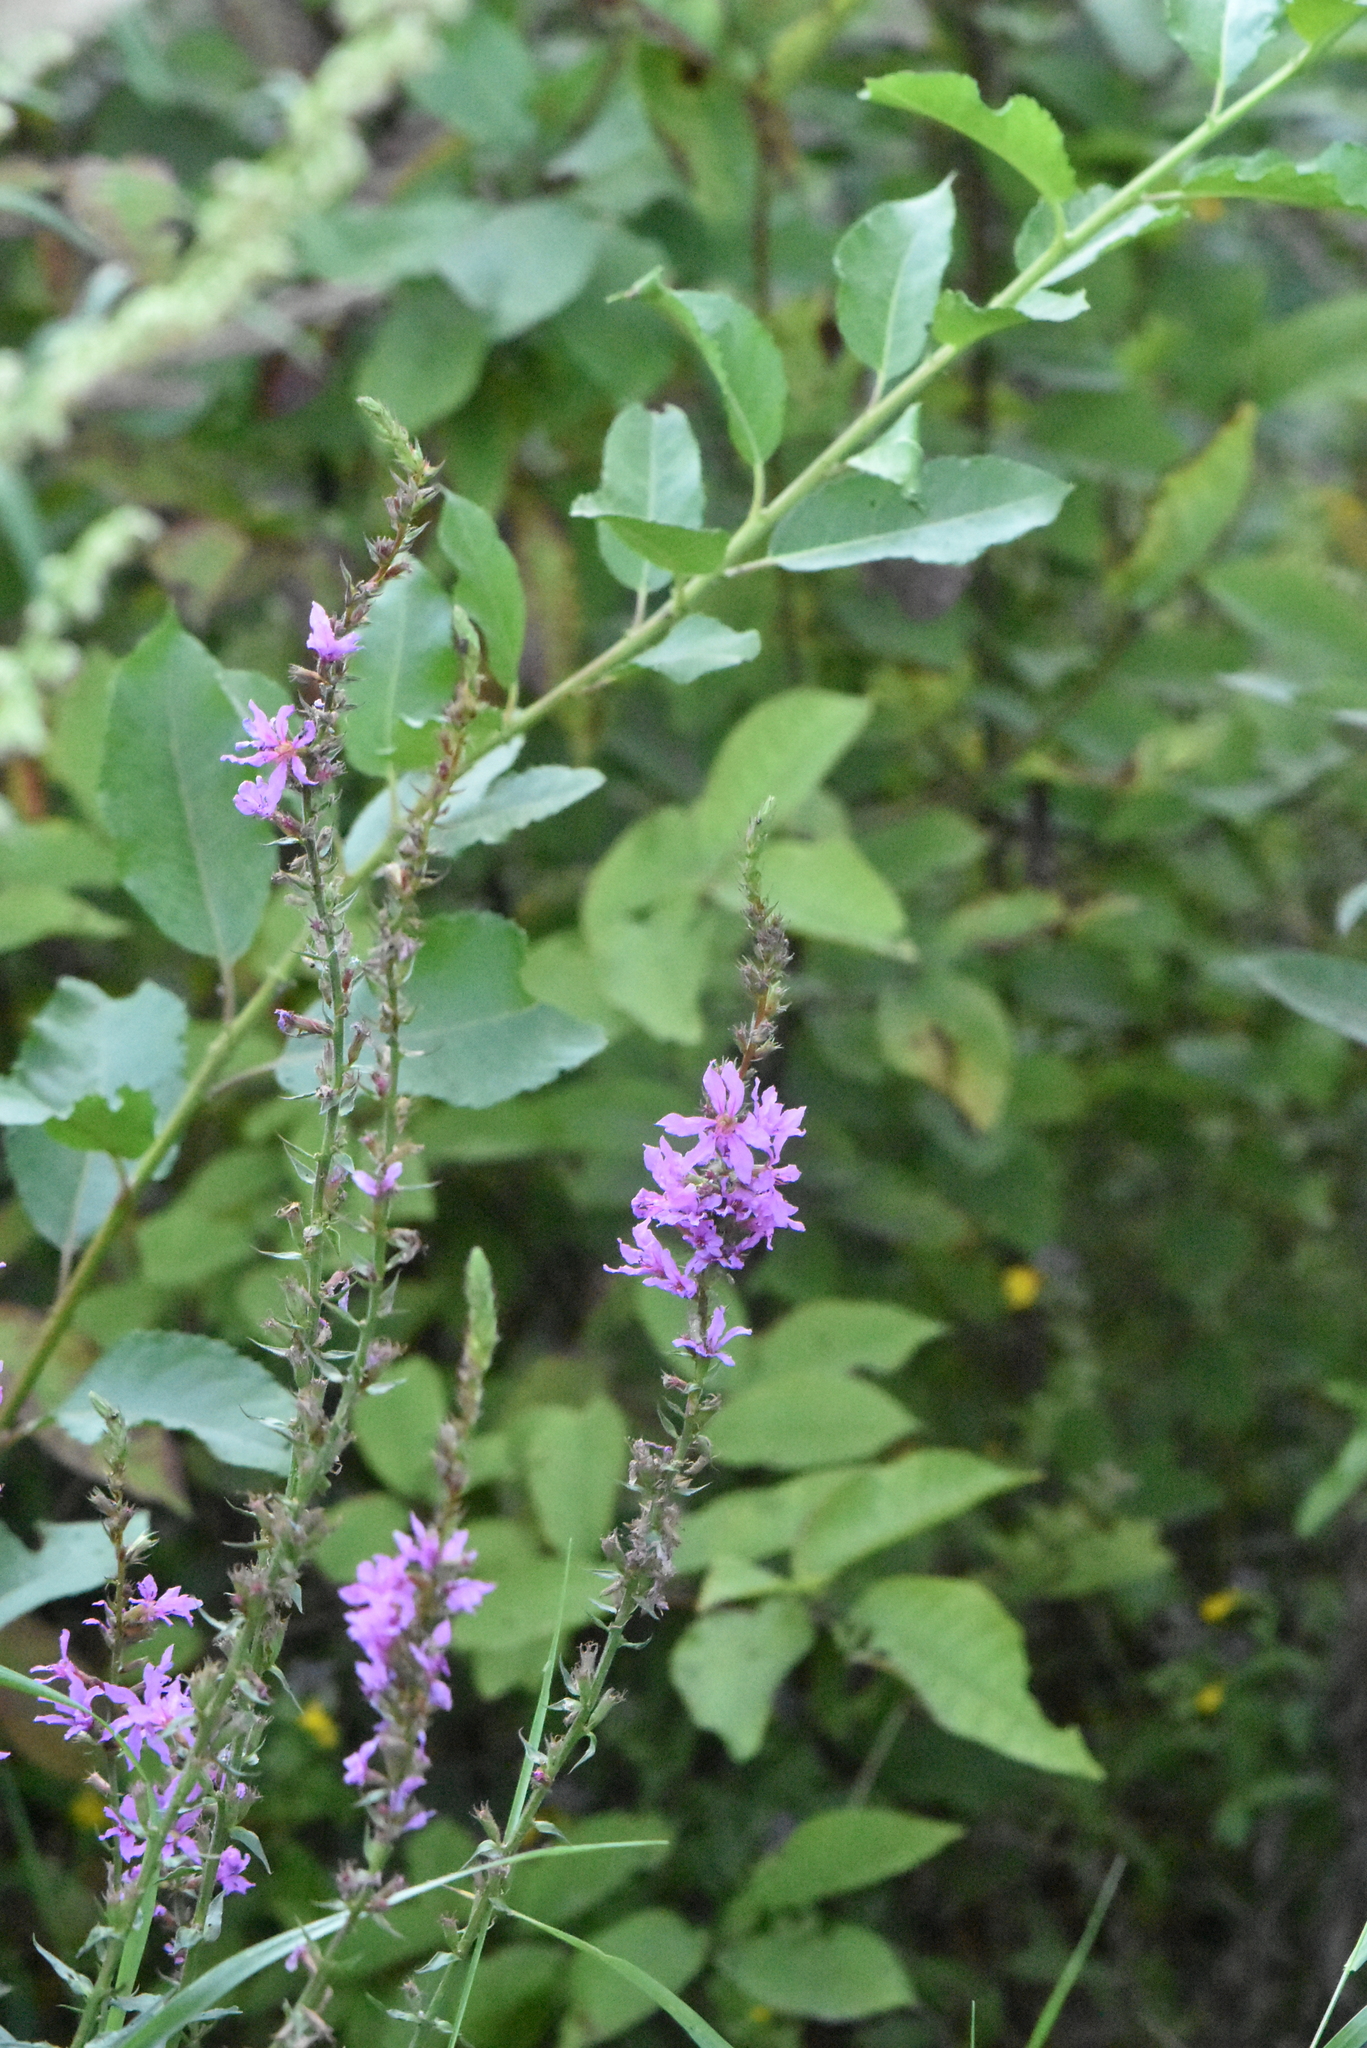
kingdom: Plantae
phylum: Tracheophyta
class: Magnoliopsida
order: Myrtales
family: Lythraceae
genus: Lythrum
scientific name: Lythrum salicaria
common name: Purple loosestrife
